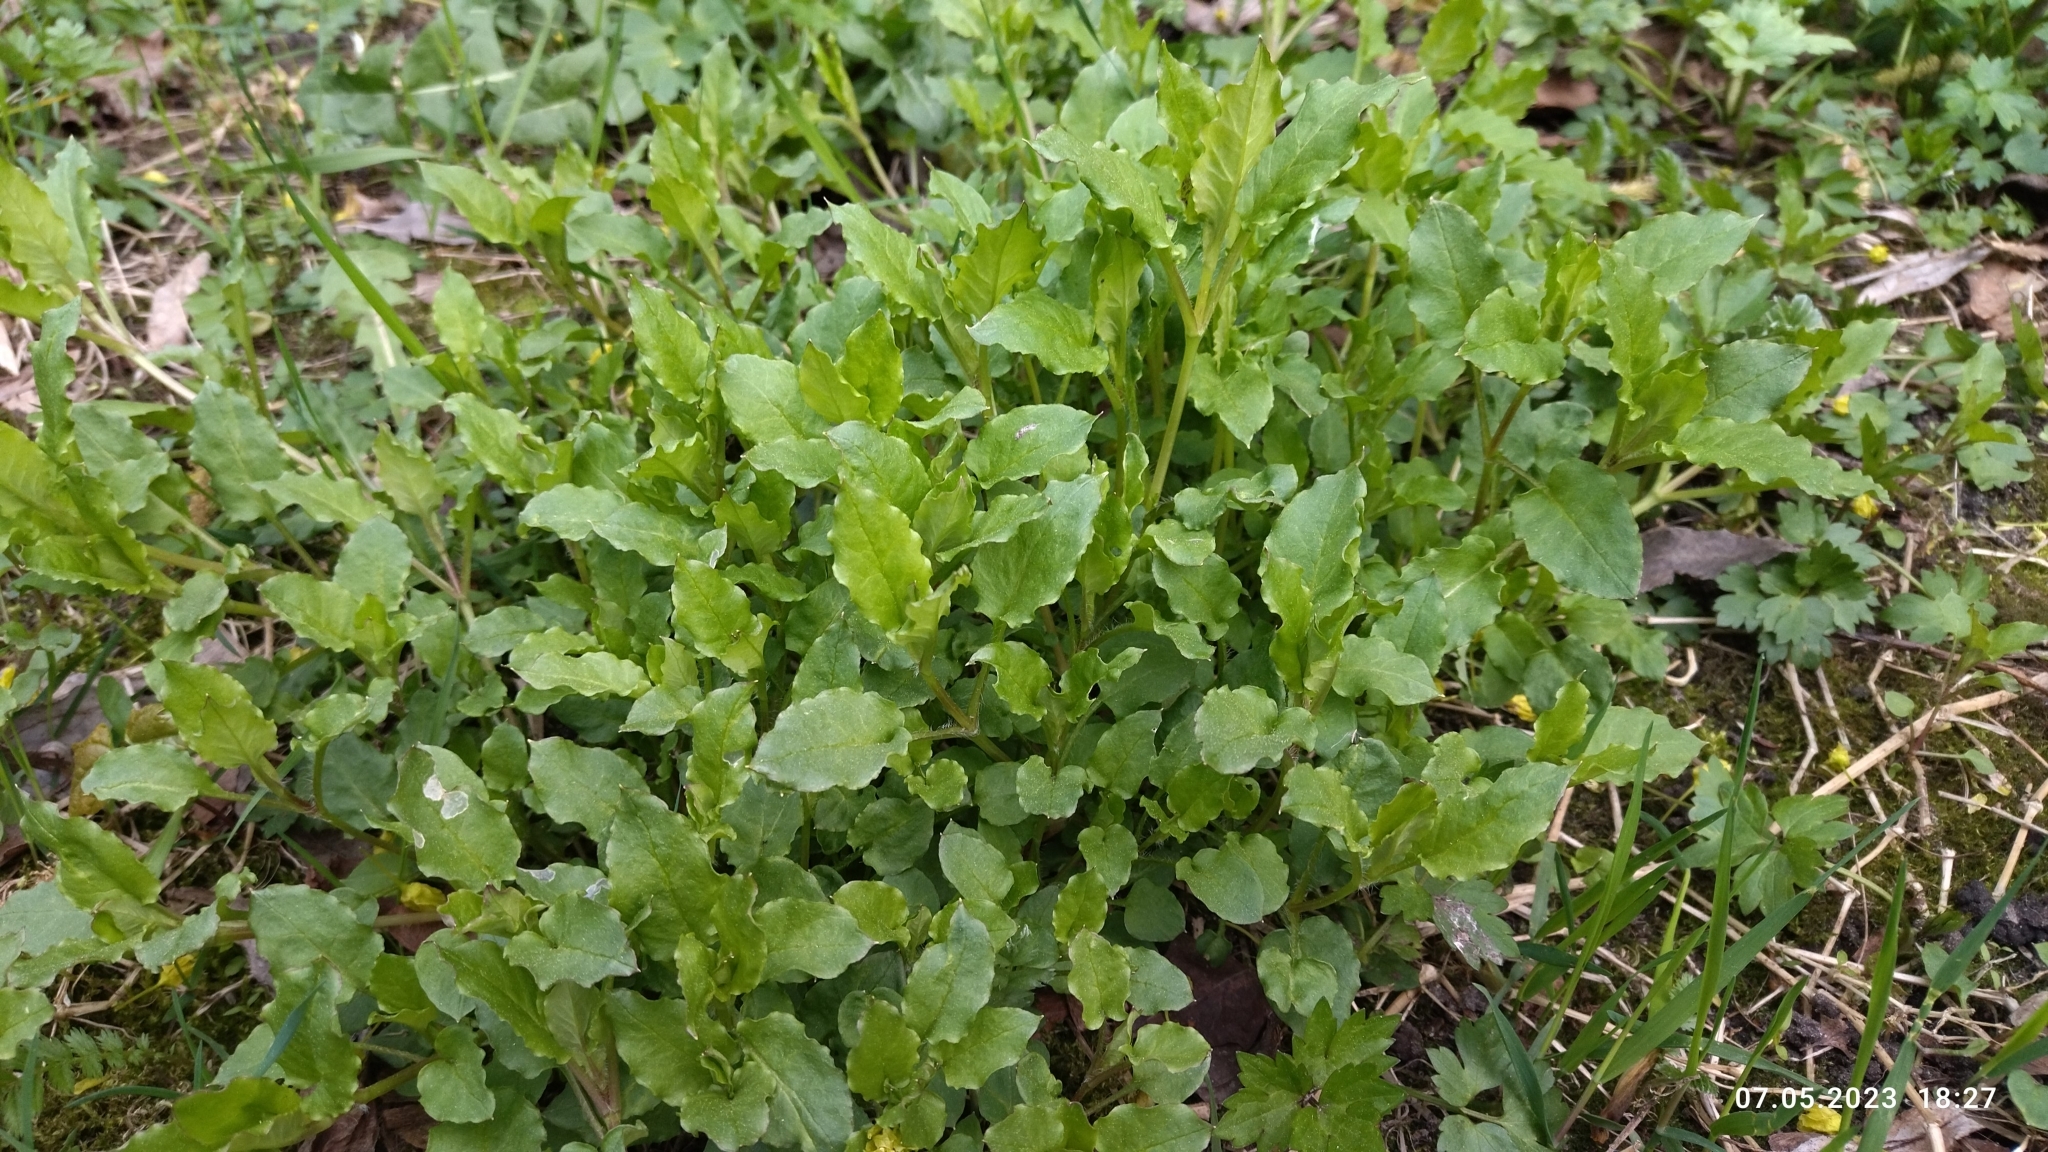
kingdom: Plantae
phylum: Tracheophyta
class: Magnoliopsida
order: Caryophyllales
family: Caryophyllaceae
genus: Stellaria
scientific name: Stellaria aquatica
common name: Water chickweed
